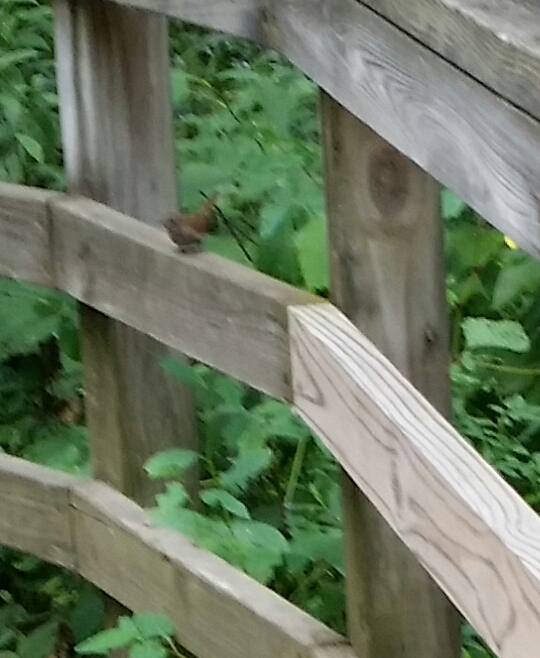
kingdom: Animalia
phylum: Chordata
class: Aves
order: Passeriformes
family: Troglodytidae
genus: Troglodytes
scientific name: Troglodytes aedon
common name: House wren
